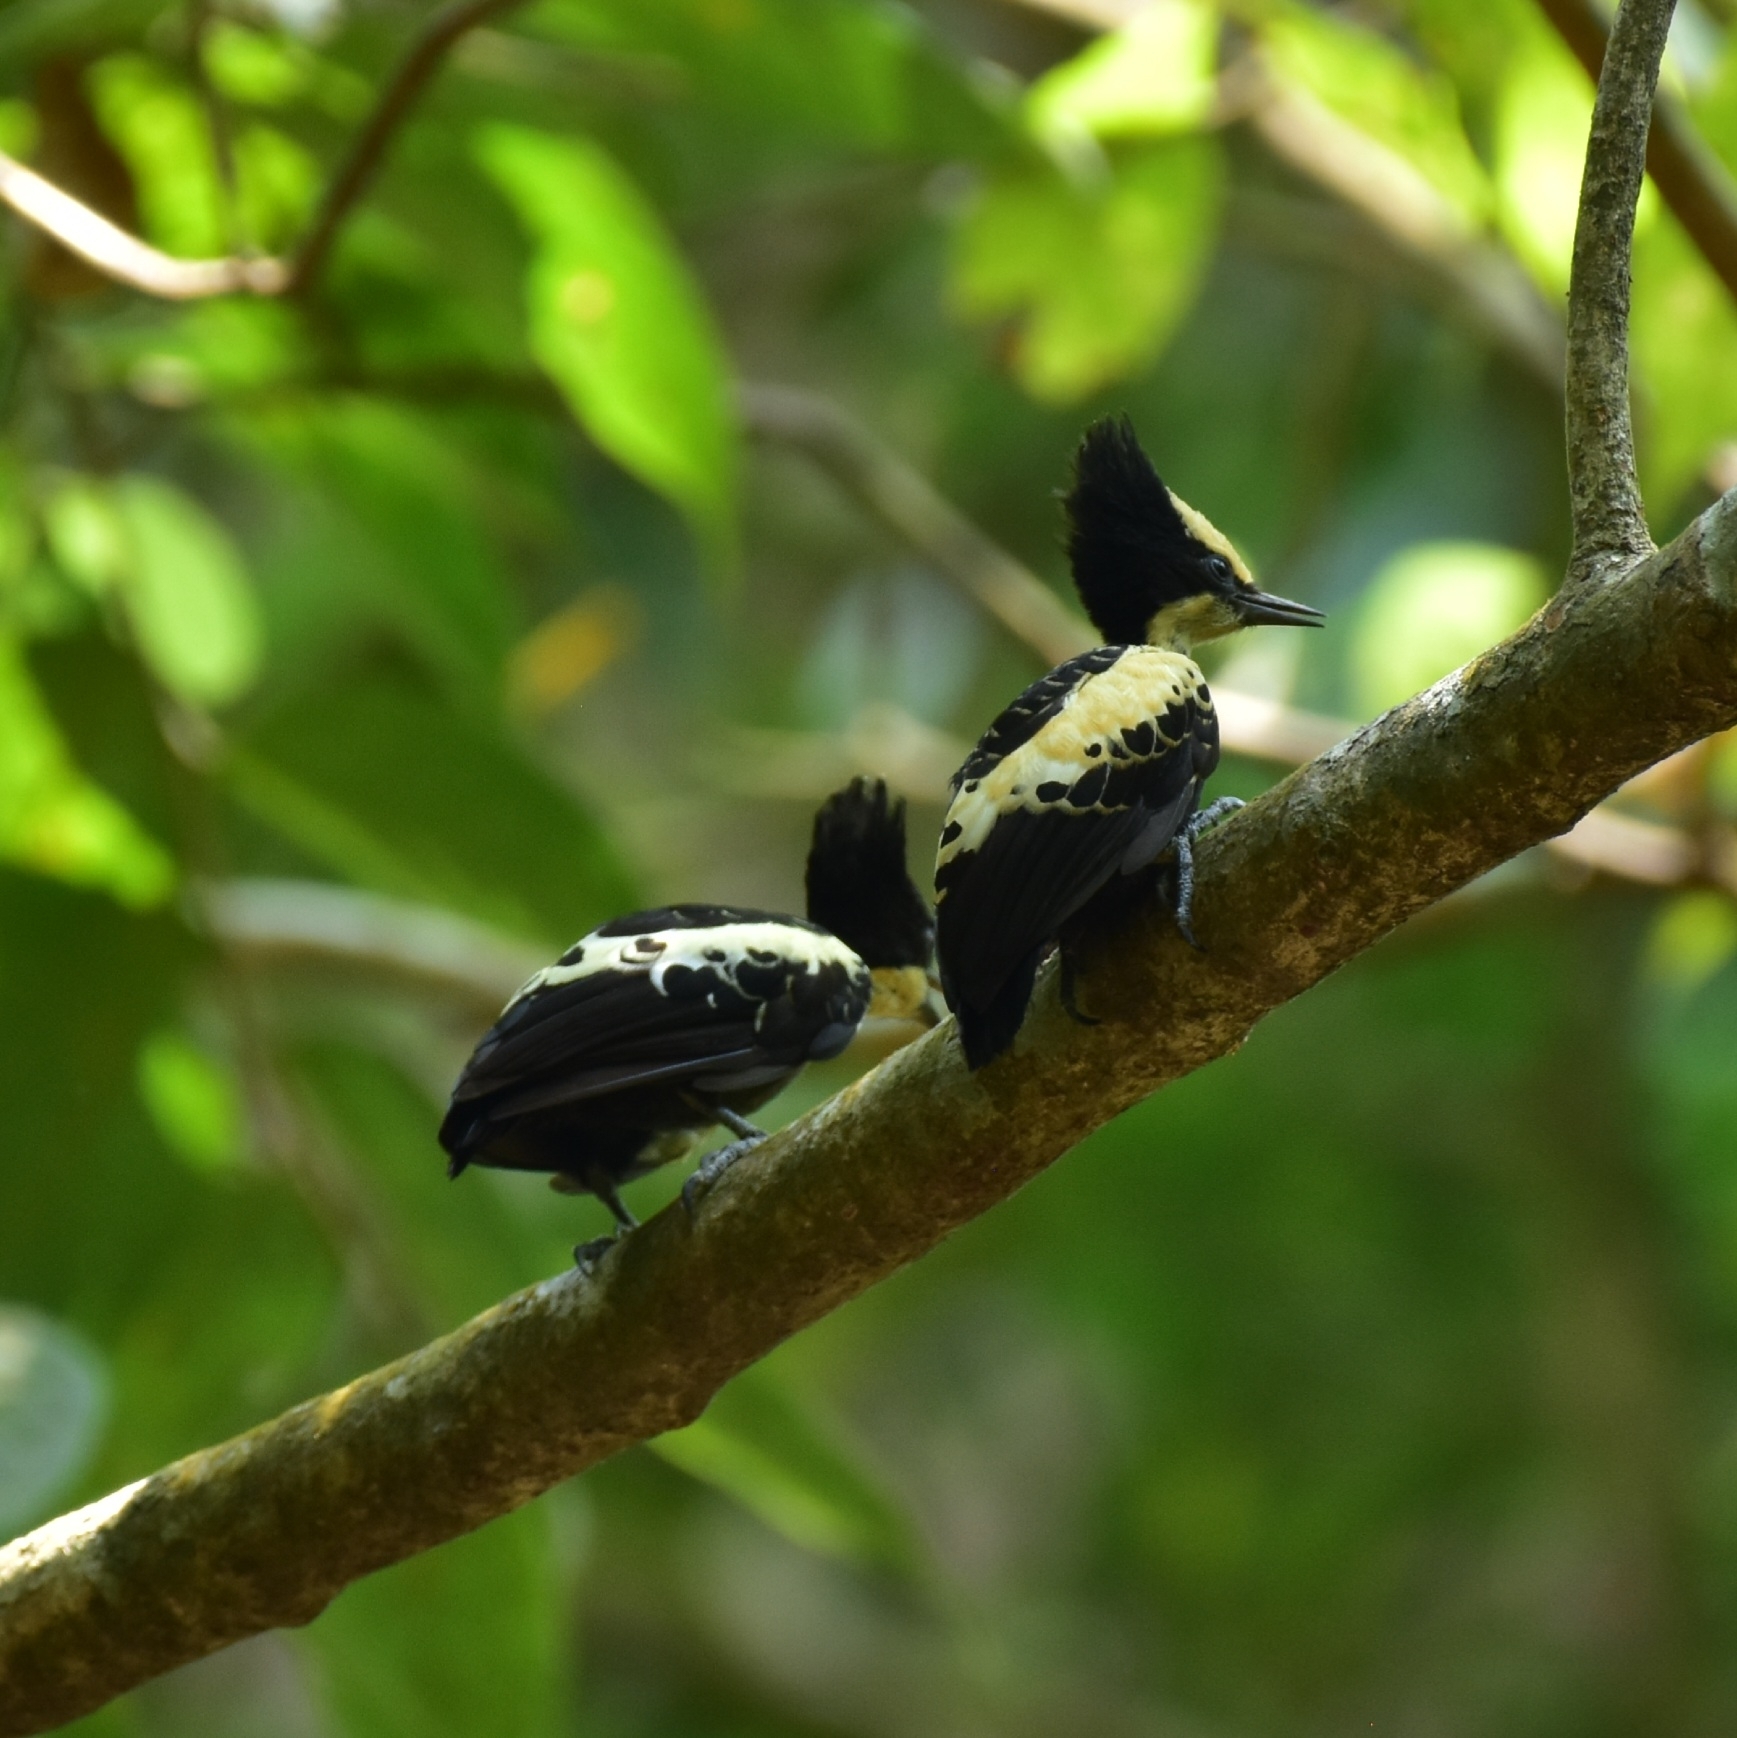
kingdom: Animalia
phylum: Chordata
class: Aves
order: Piciformes
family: Picidae
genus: Hemicircus
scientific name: Hemicircus canente
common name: Heart-spotted woodpecker
